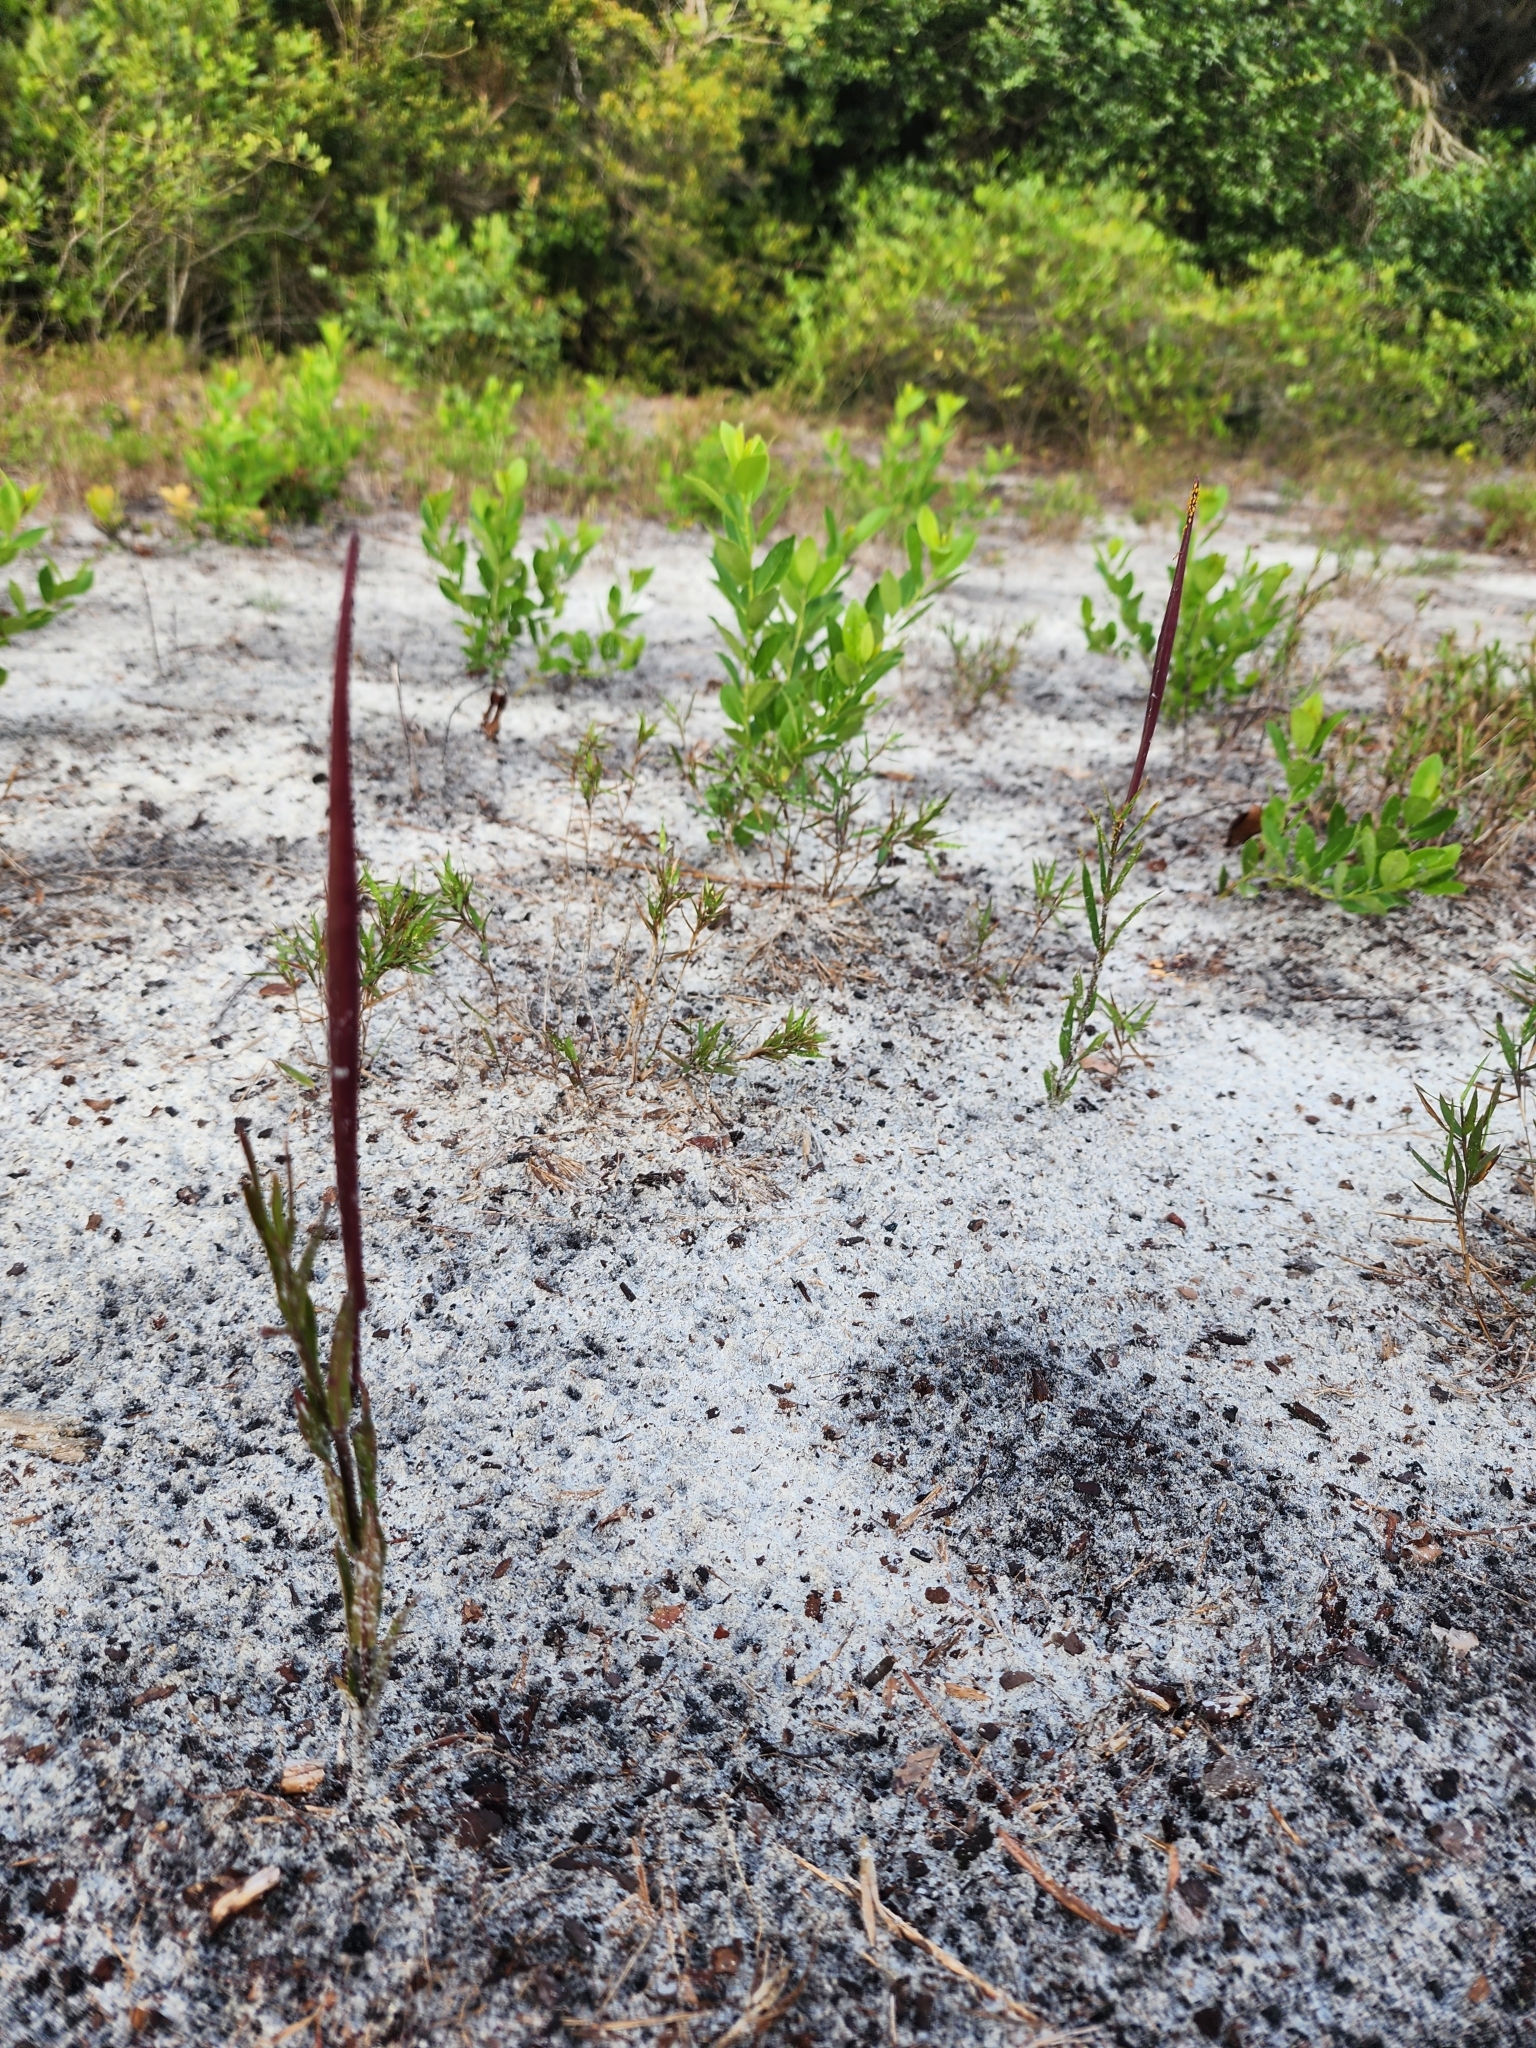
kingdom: Plantae
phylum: Tracheophyta
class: Magnoliopsida
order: Gentianales
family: Apocynaceae
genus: Asclepias
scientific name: Asclepias pedicellata
